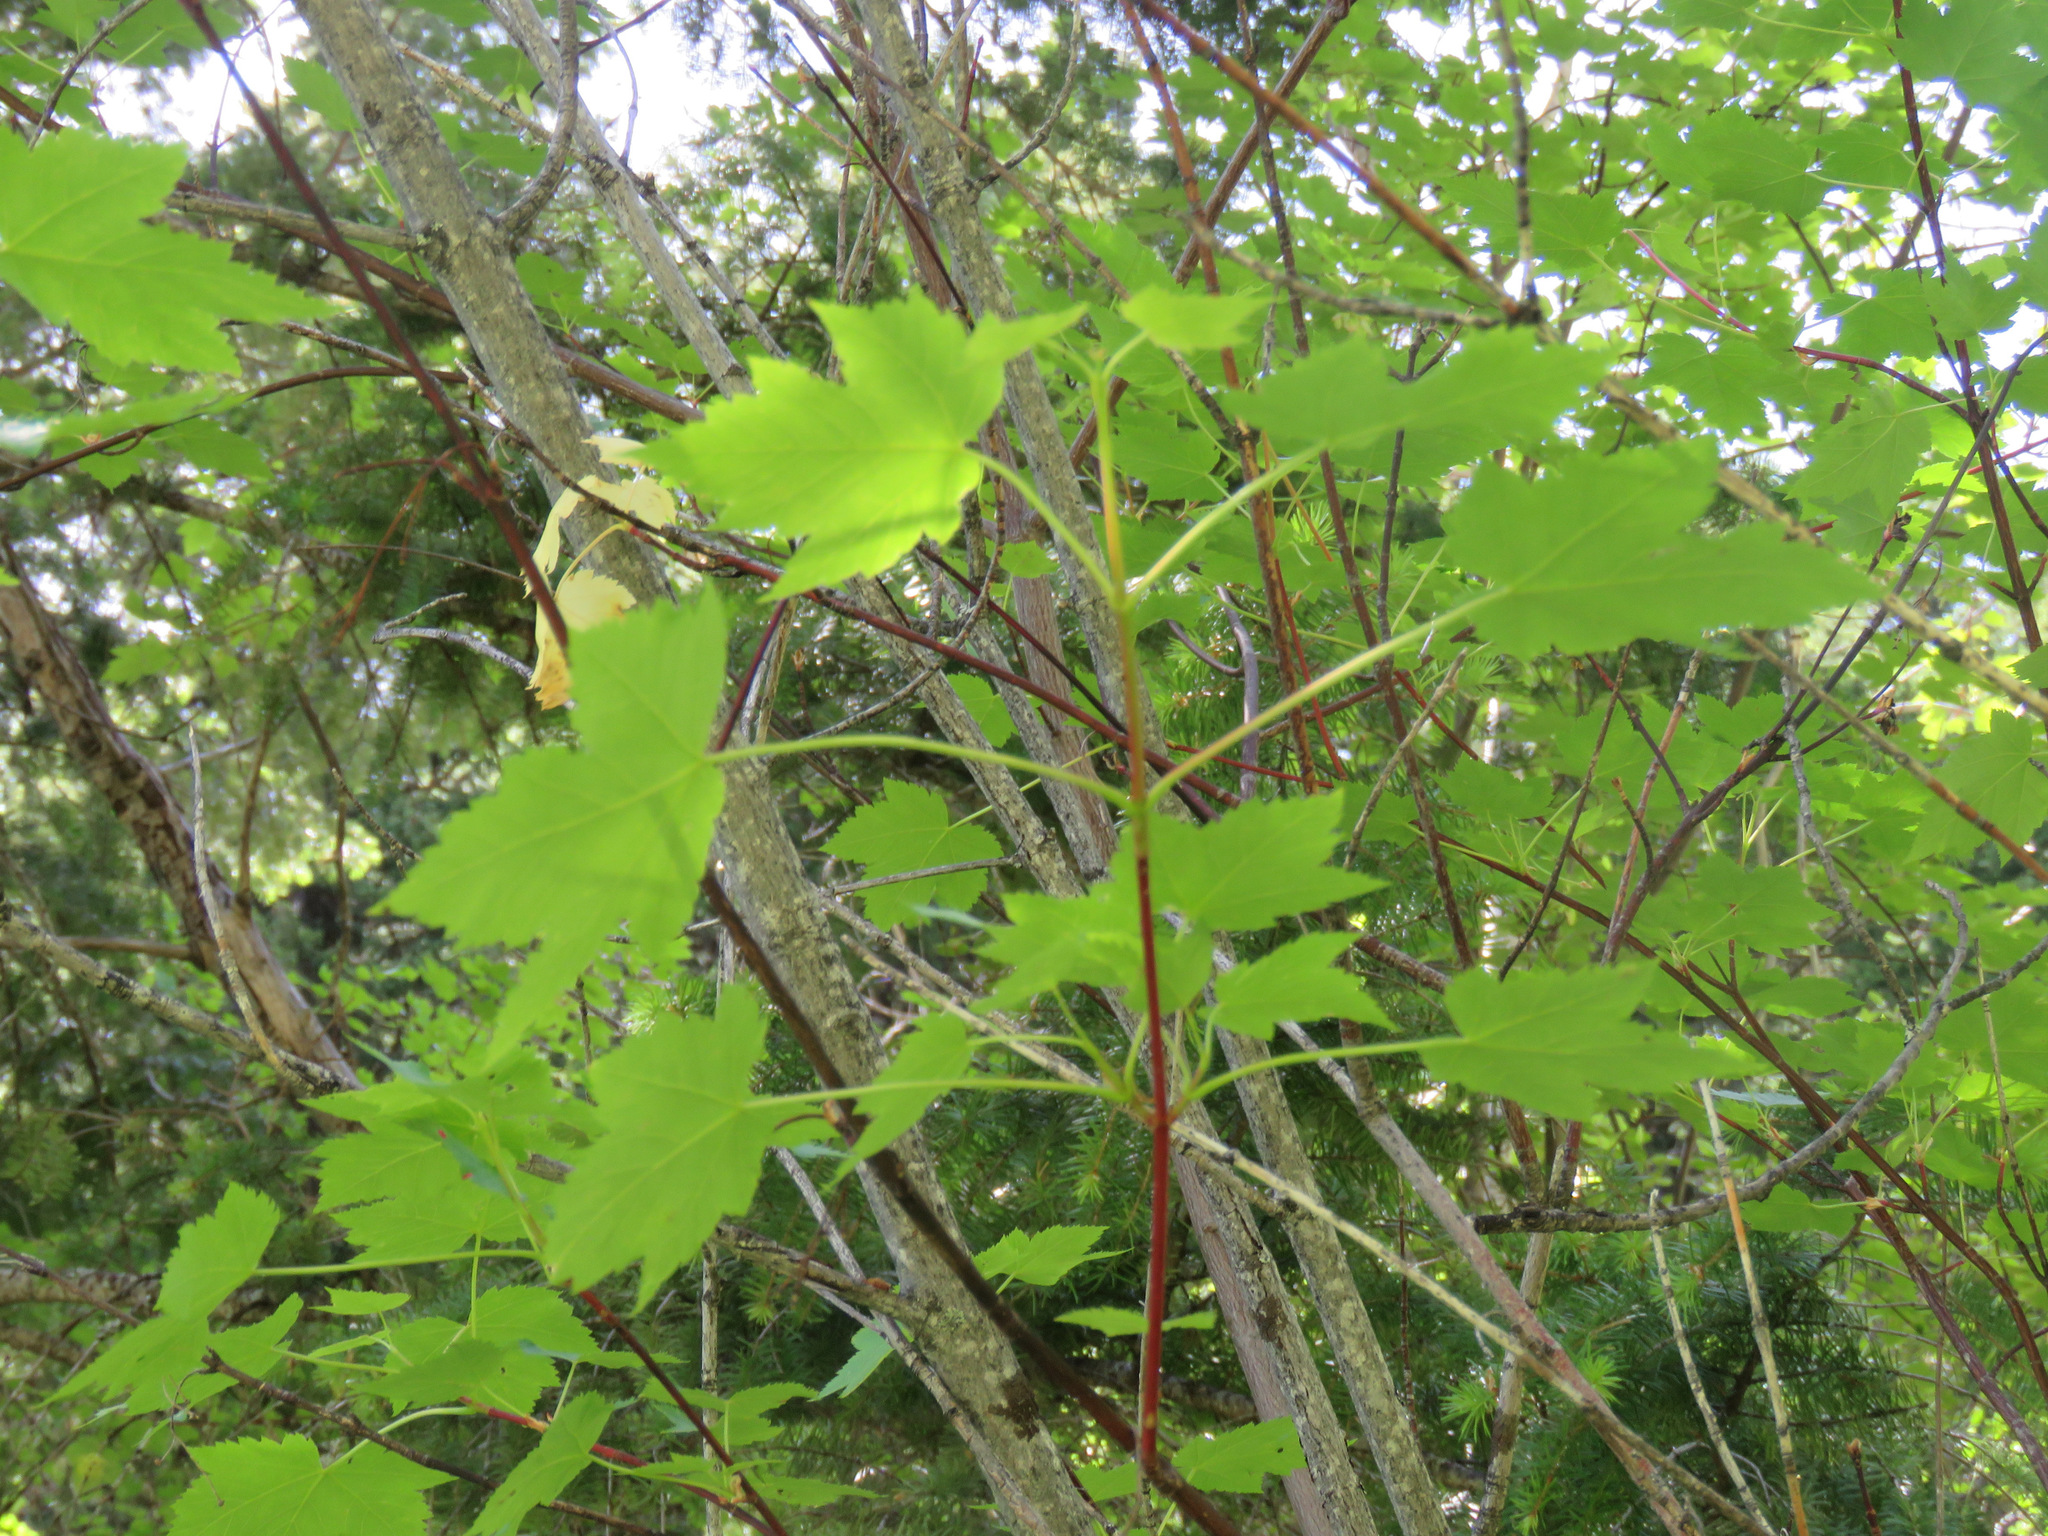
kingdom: Plantae
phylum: Tracheophyta
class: Magnoliopsida
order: Sapindales
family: Sapindaceae
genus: Acer
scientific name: Acer glabrum
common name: Rocky mountain maple
